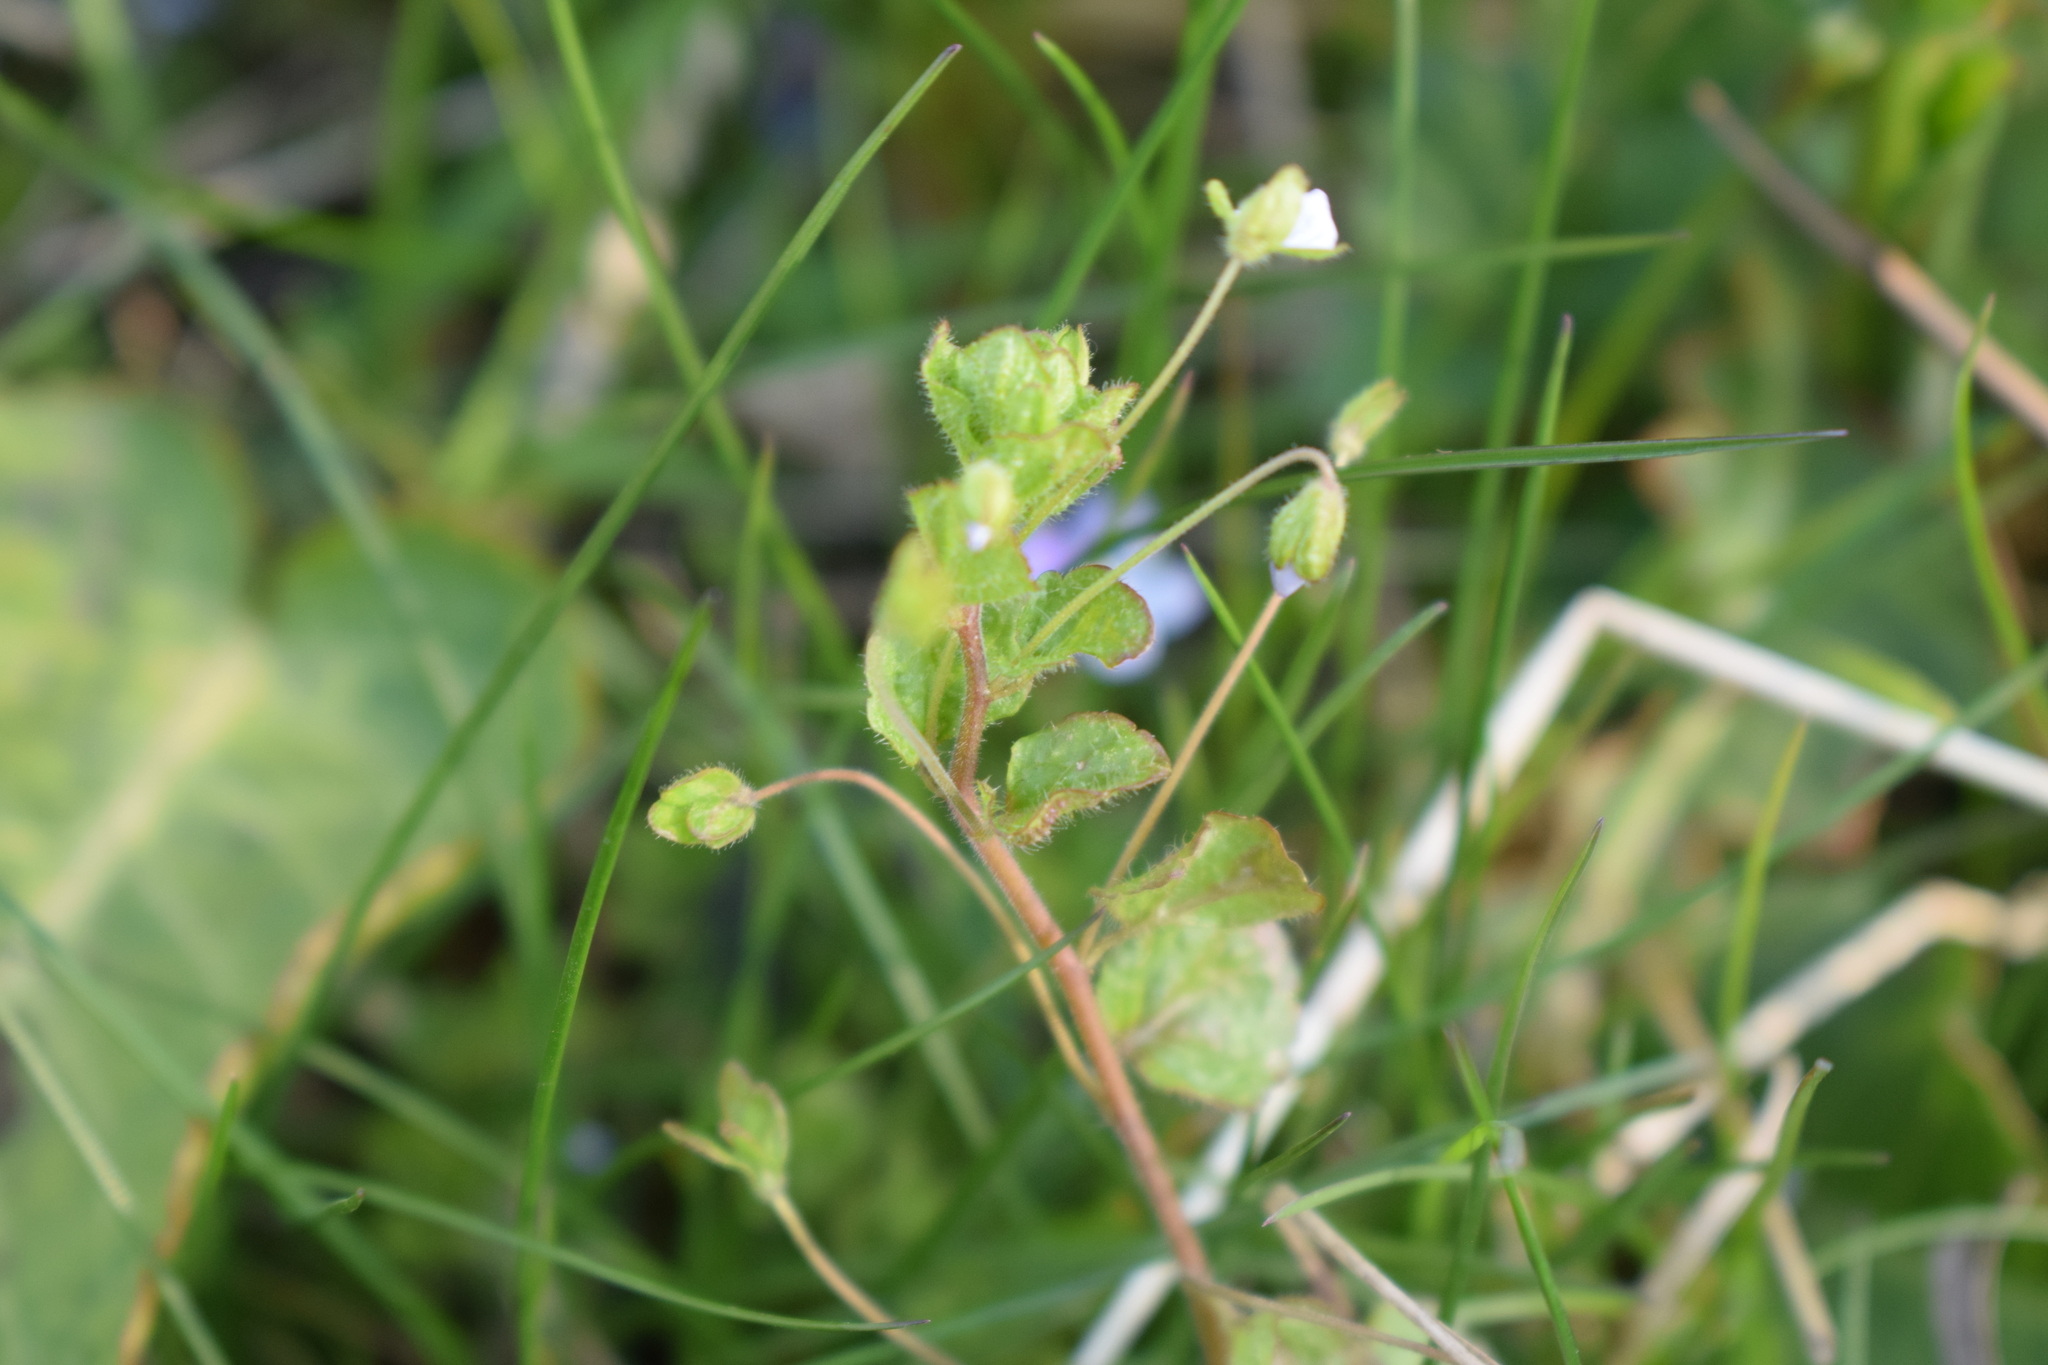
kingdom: Plantae
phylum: Tracheophyta
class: Magnoliopsida
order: Lamiales
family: Plantaginaceae
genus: Veronica
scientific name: Veronica filiformis
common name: Slender speedwell
